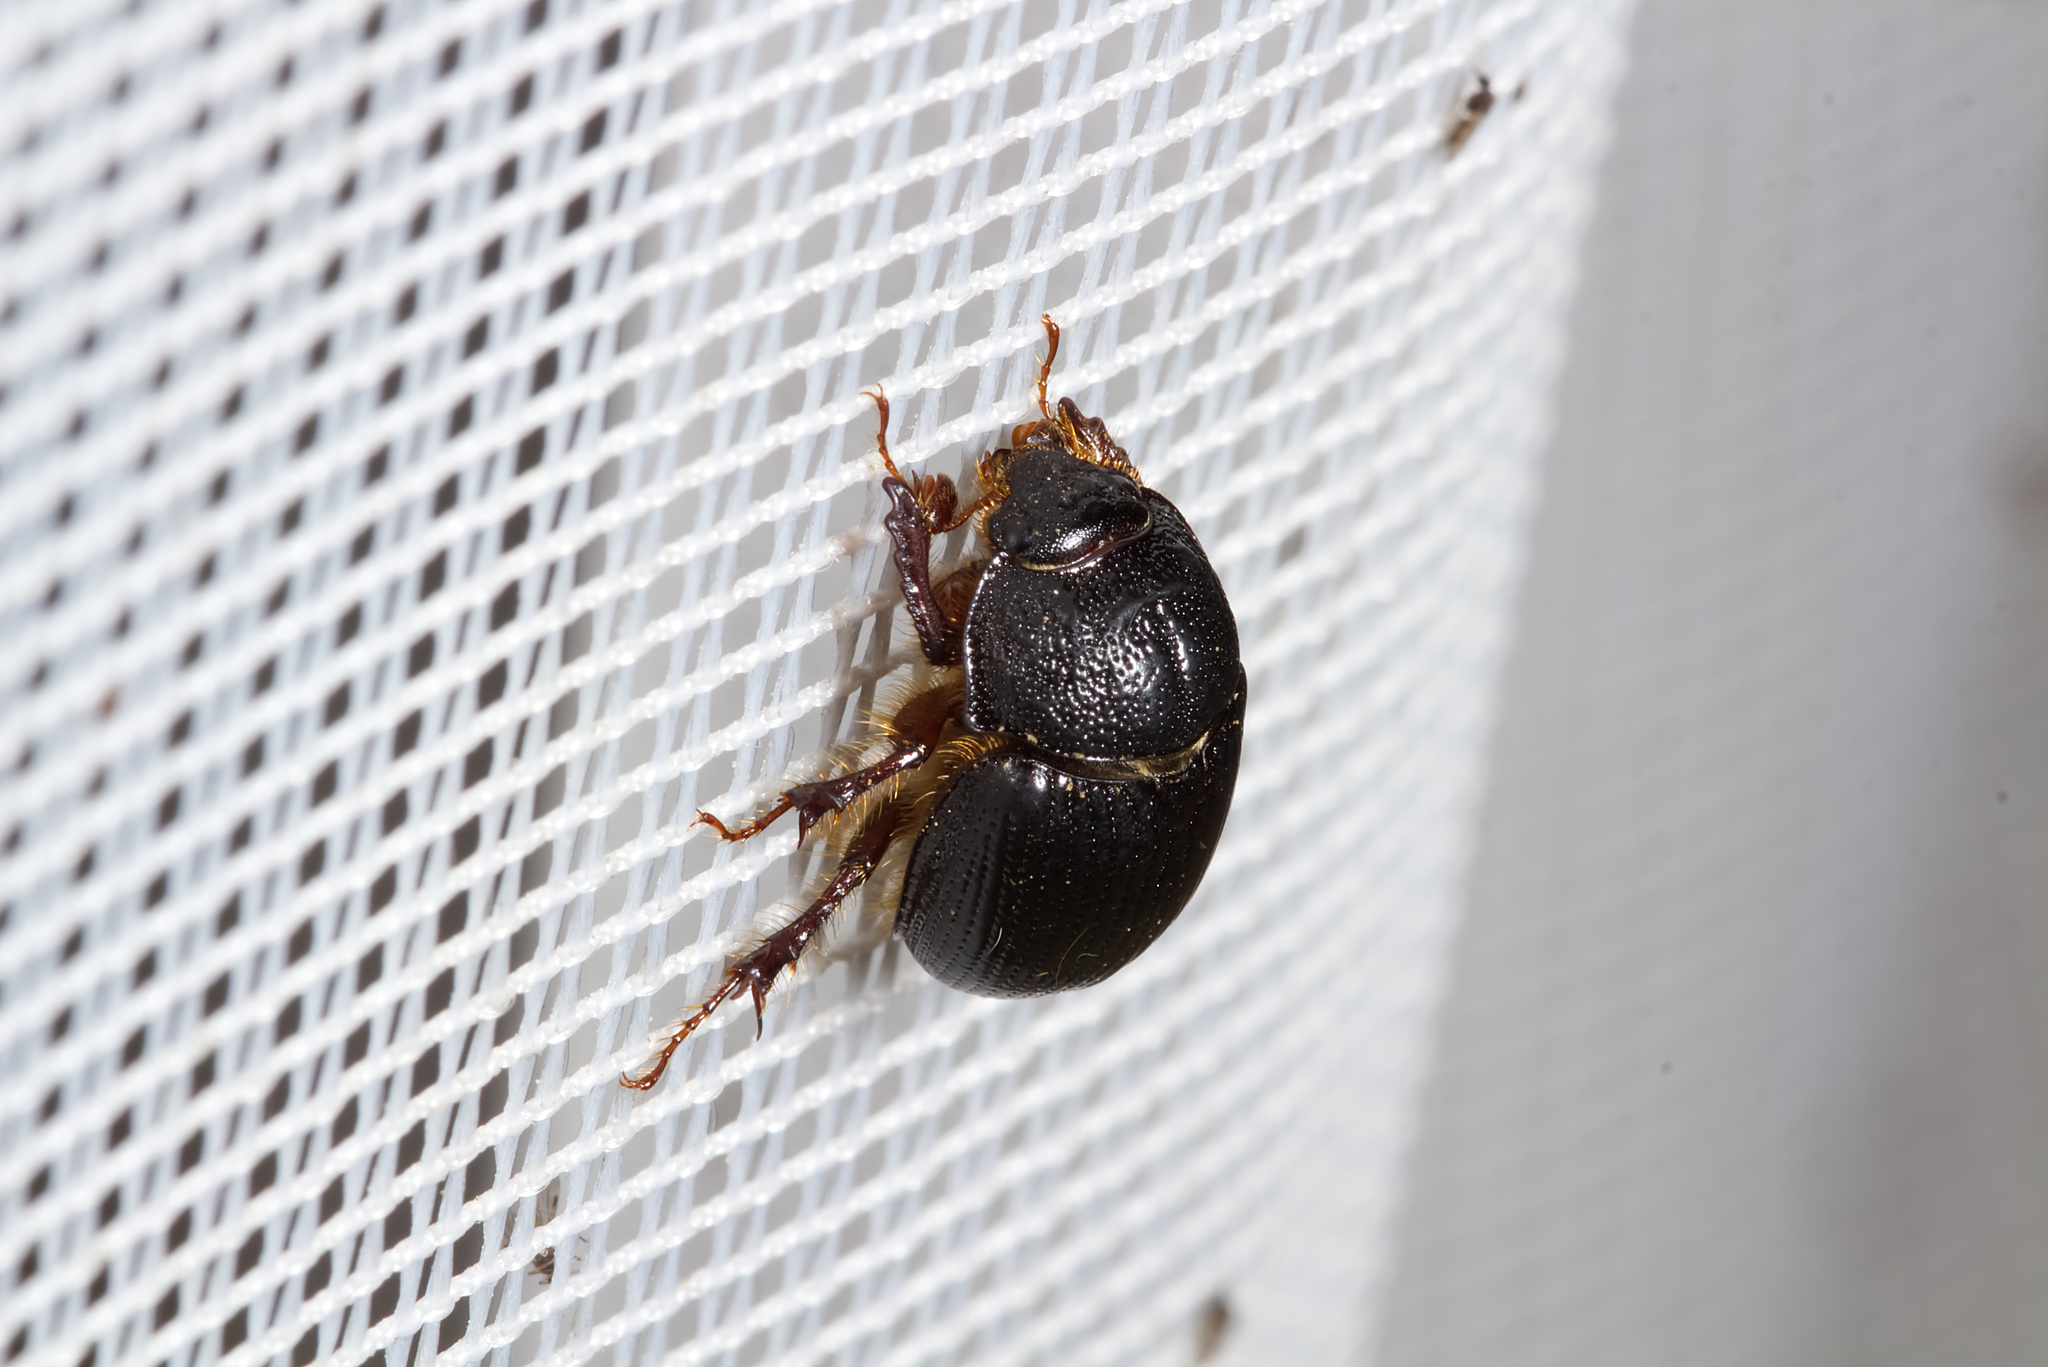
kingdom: Animalia
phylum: Arthropoda
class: Insecta
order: Coleoptera
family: Geotrupidae
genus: Odonteus
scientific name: Odonteus armiger
